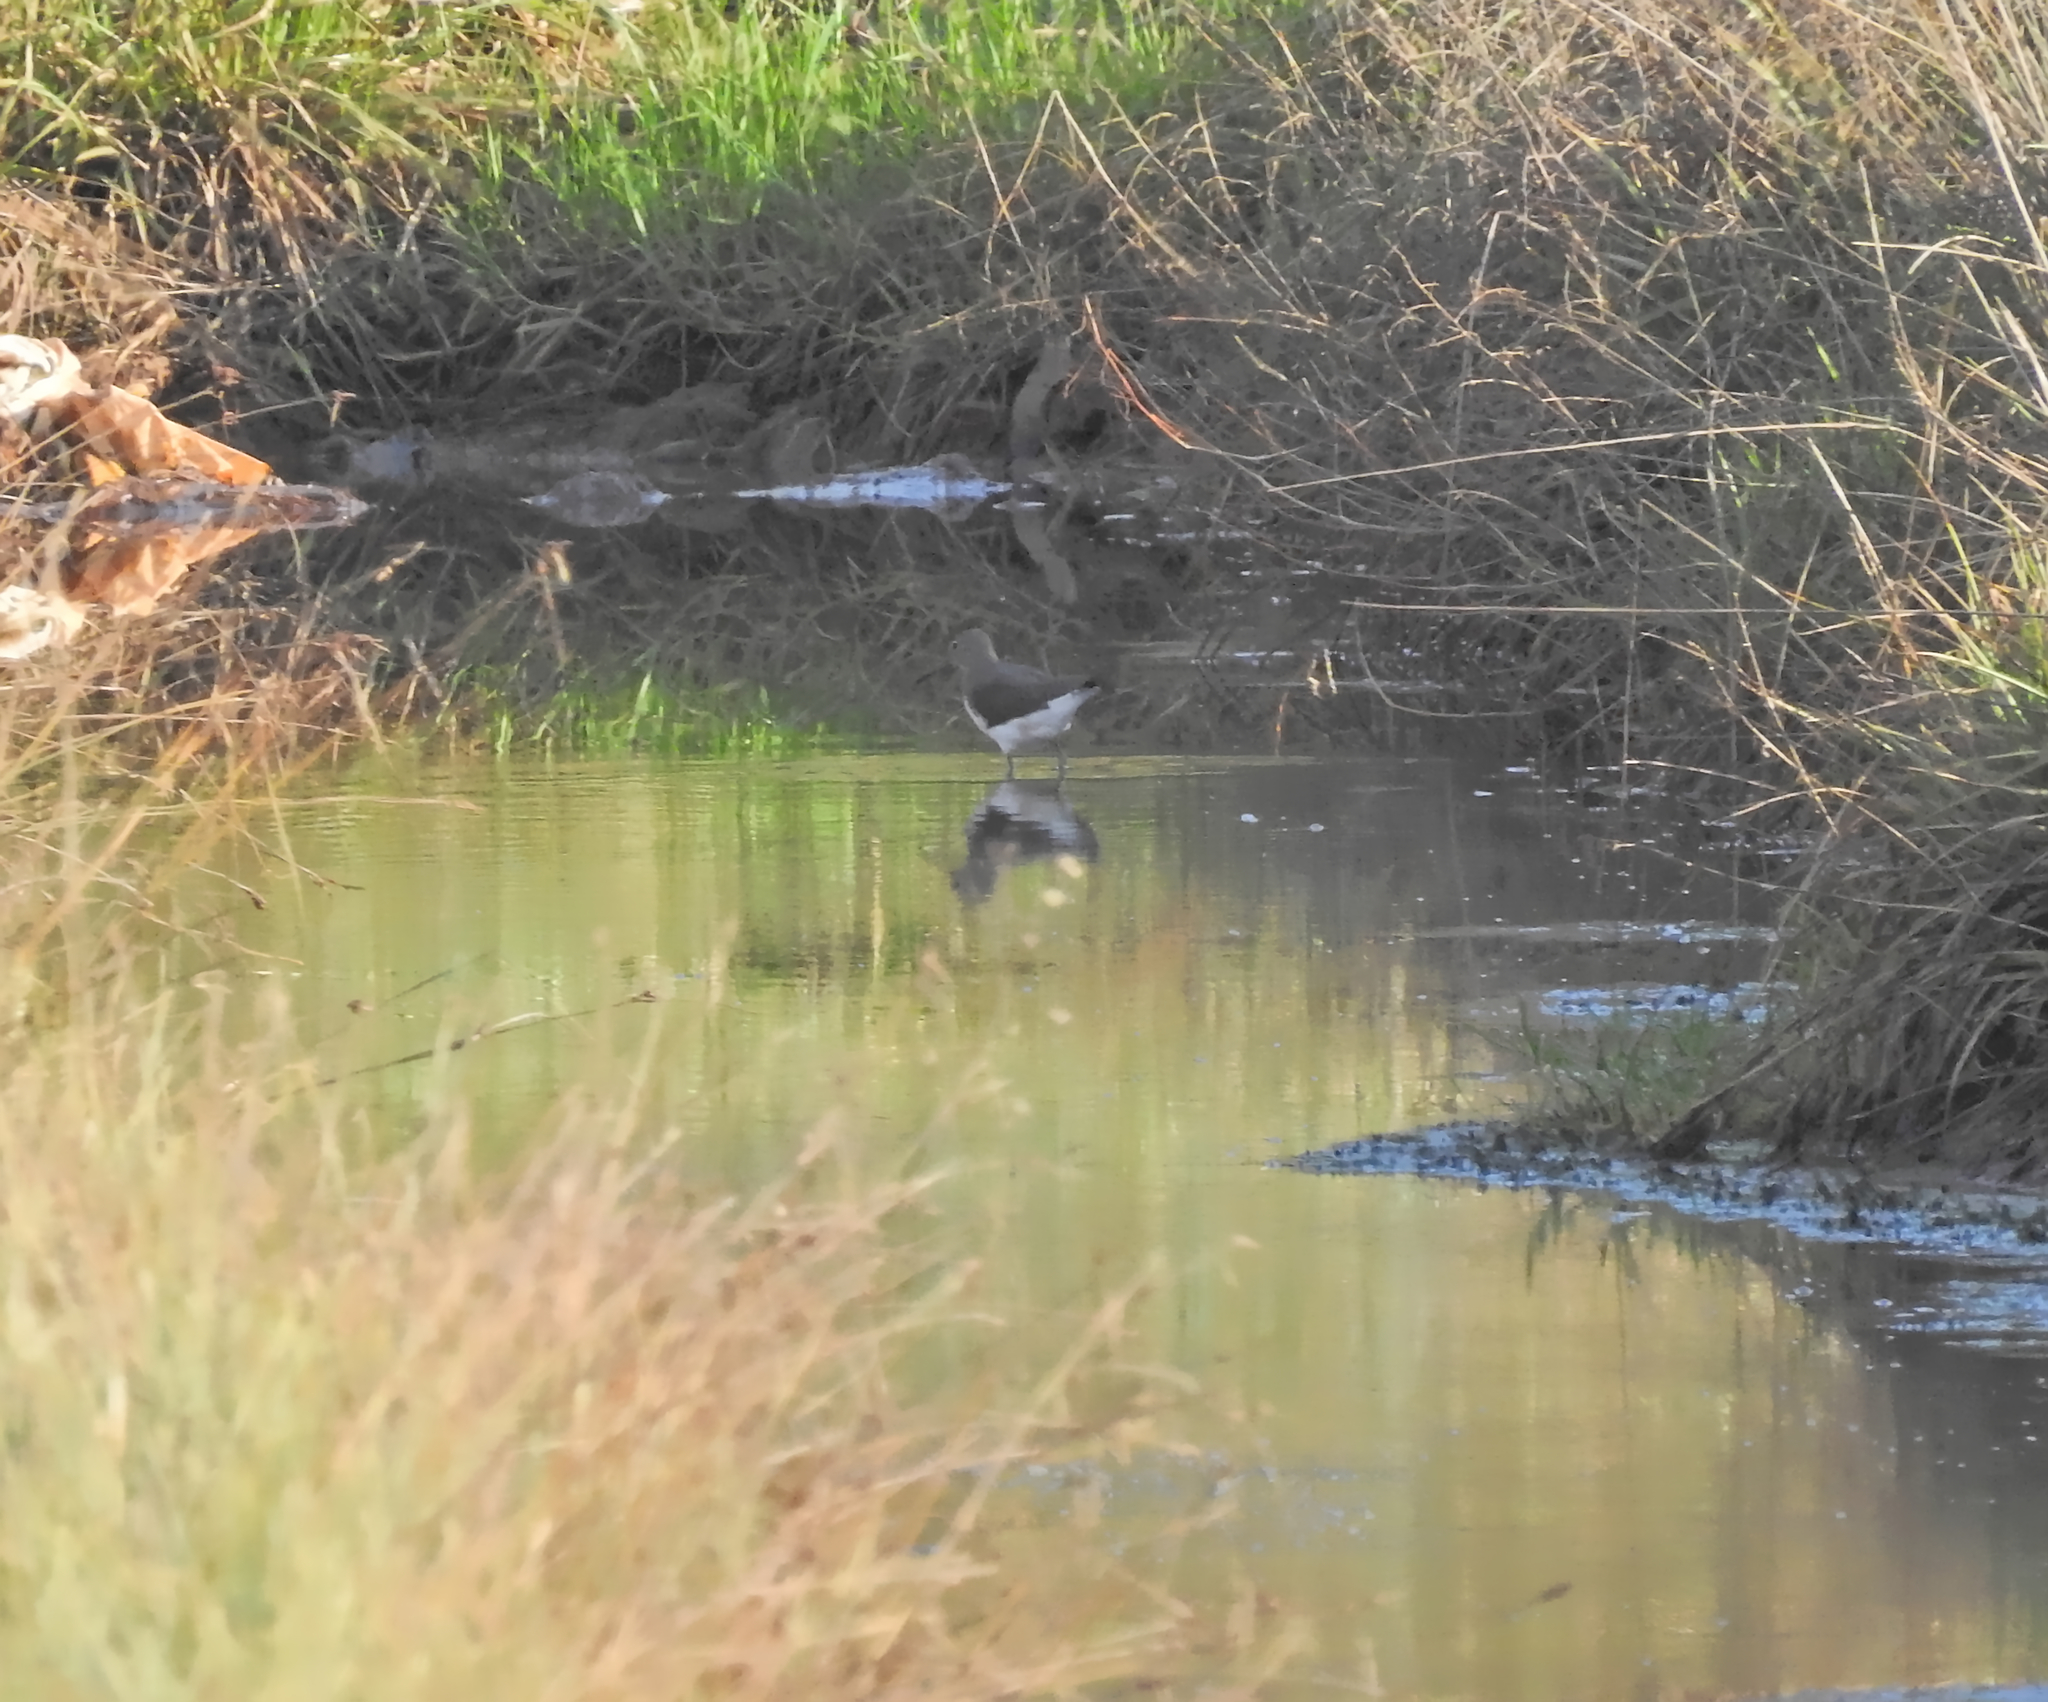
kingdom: Animalia
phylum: Chordata
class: Aves
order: Charadriiformes
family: Scolopacidae
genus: Tringa
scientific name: Tringa ochropus
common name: Green sandpiper
